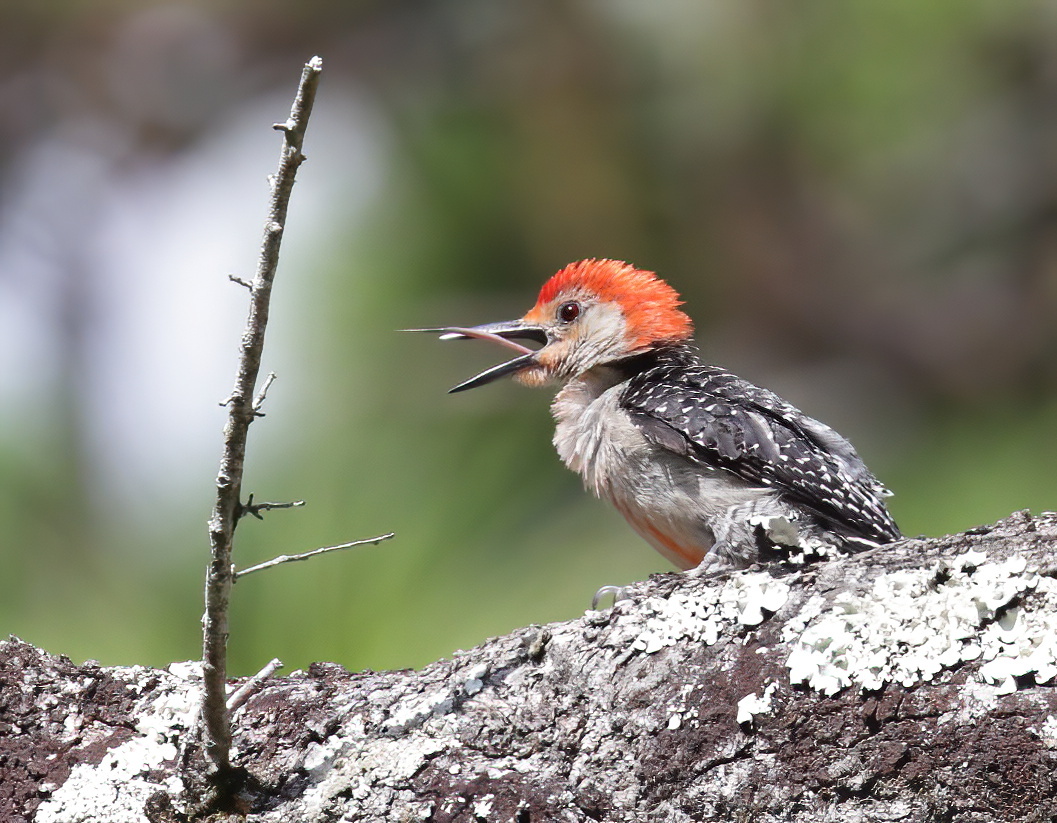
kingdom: Animalia
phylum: Chordata
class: Aves
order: Piciformes
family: Picidae
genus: Melanerpes
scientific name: Melanerpes carolinus
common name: Red-bellied woodpecker
